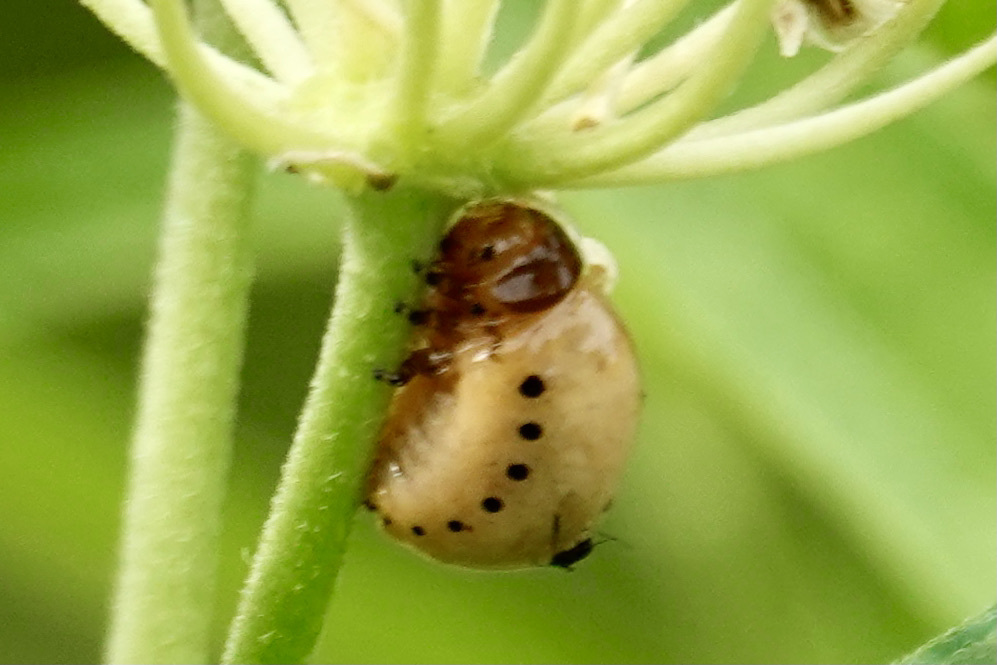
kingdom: Animalia
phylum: Arthropoda
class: Insecta
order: Coleoptera
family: Chrysomelidae
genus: Labidomera
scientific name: Labidomera clivicollis
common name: Swamp milkweed leaf beetle
